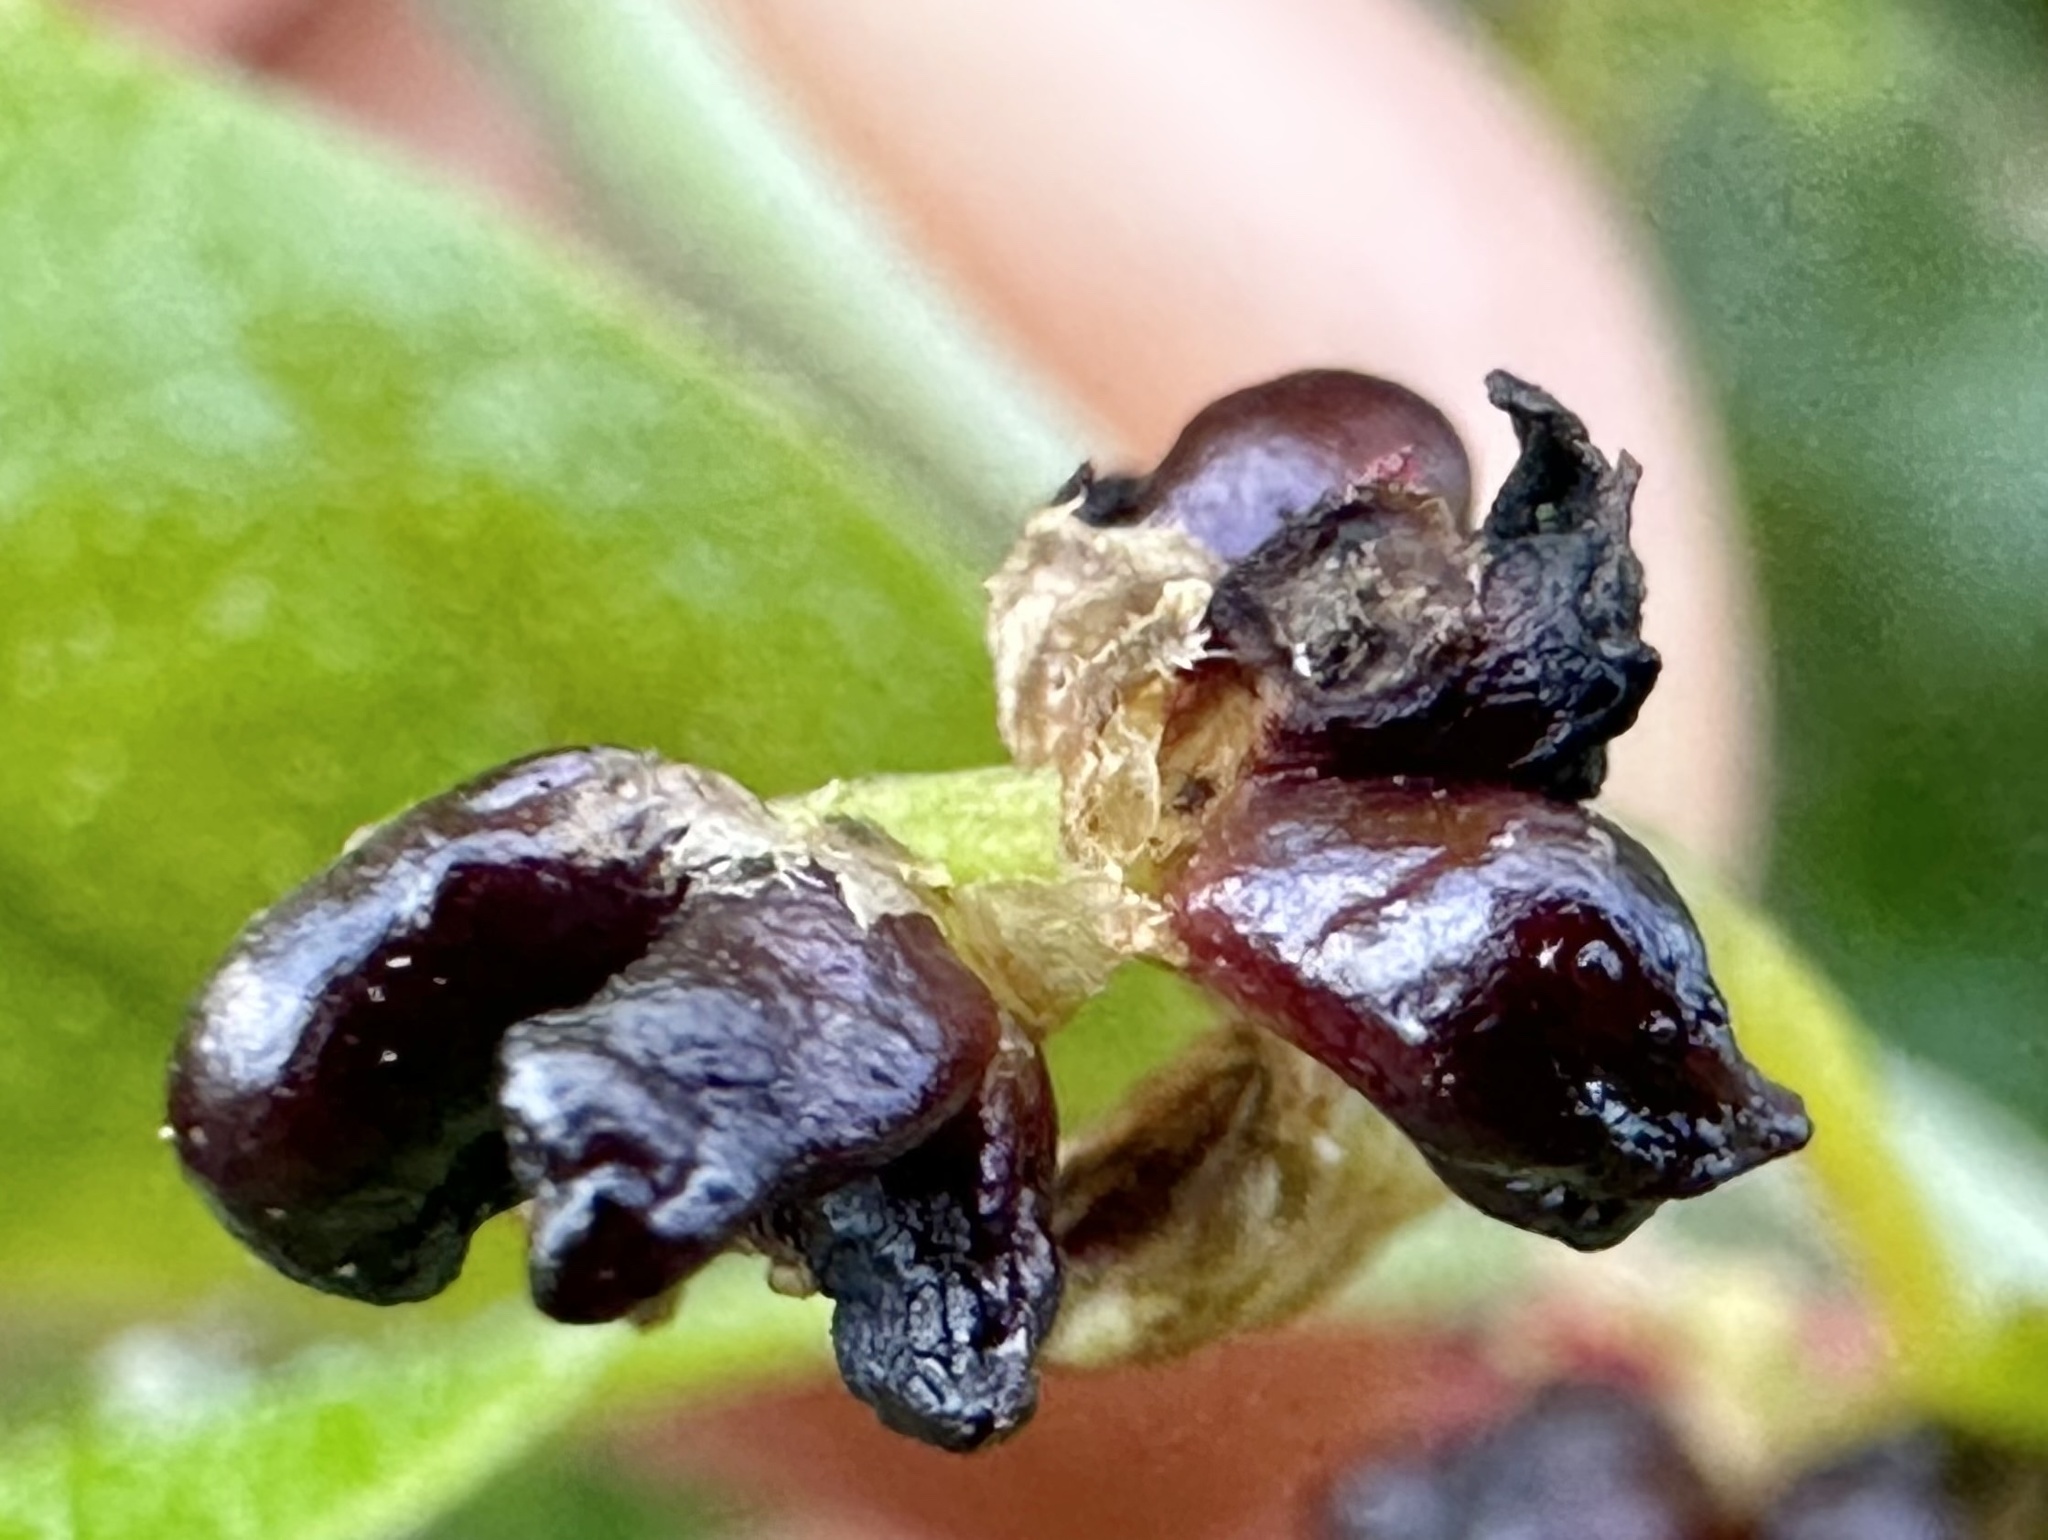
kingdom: Animalia
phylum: Arthropoda
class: Insecta
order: Hymenoptera
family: Cynipidae
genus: Dryocosmus
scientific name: Dryocosmus
